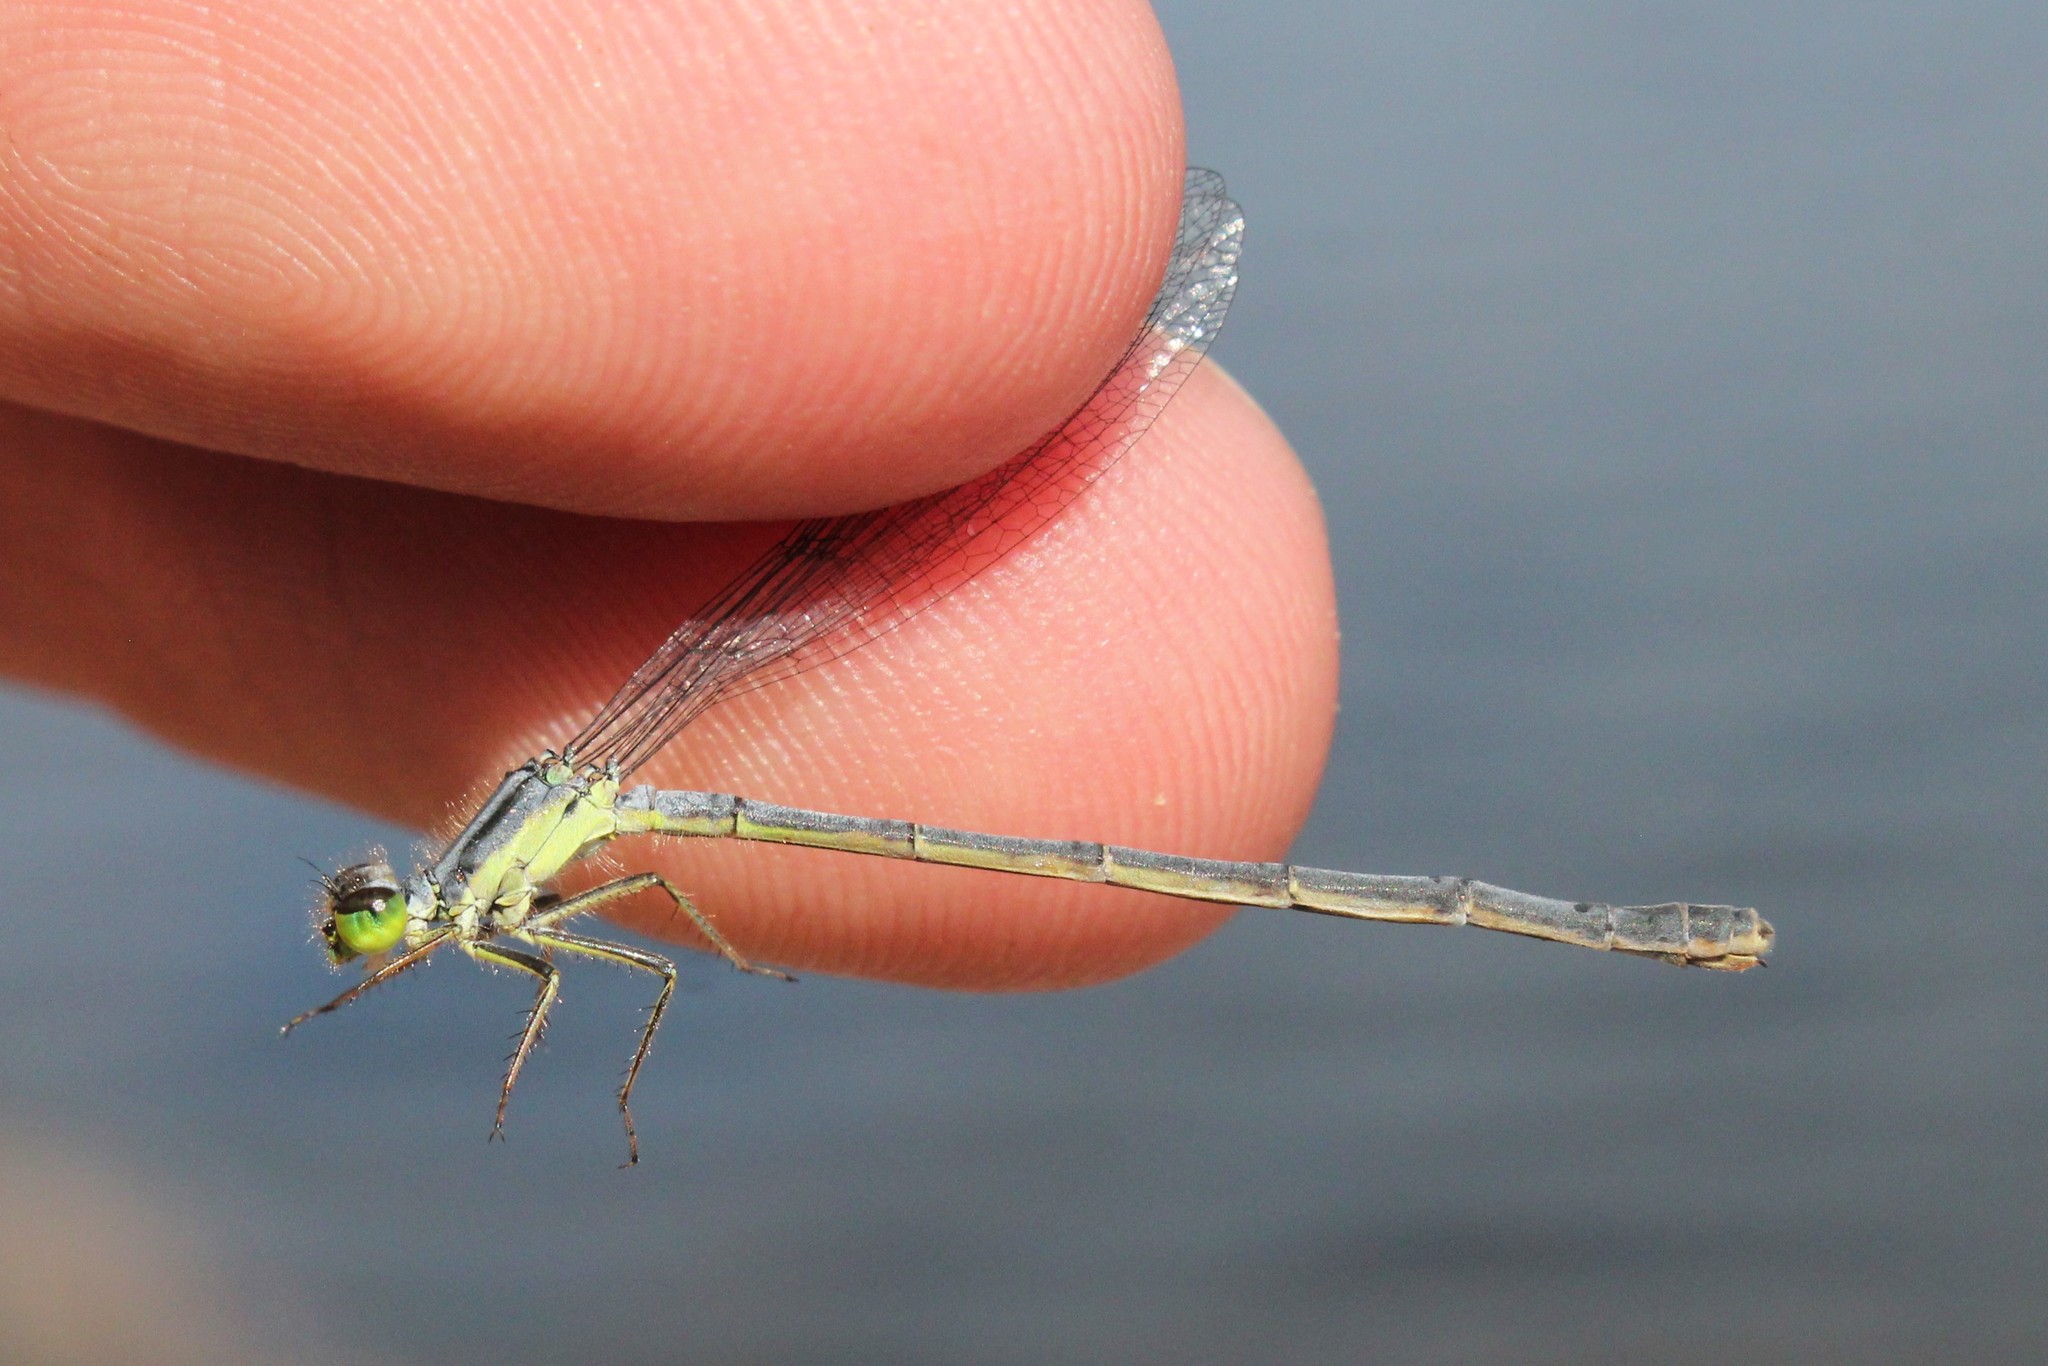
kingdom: Animalia
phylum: Arthropoda
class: Insecta
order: Odonata
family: Coenagrionidae
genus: Ischnura
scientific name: Ischnura verticalis
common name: Eastern forktail
